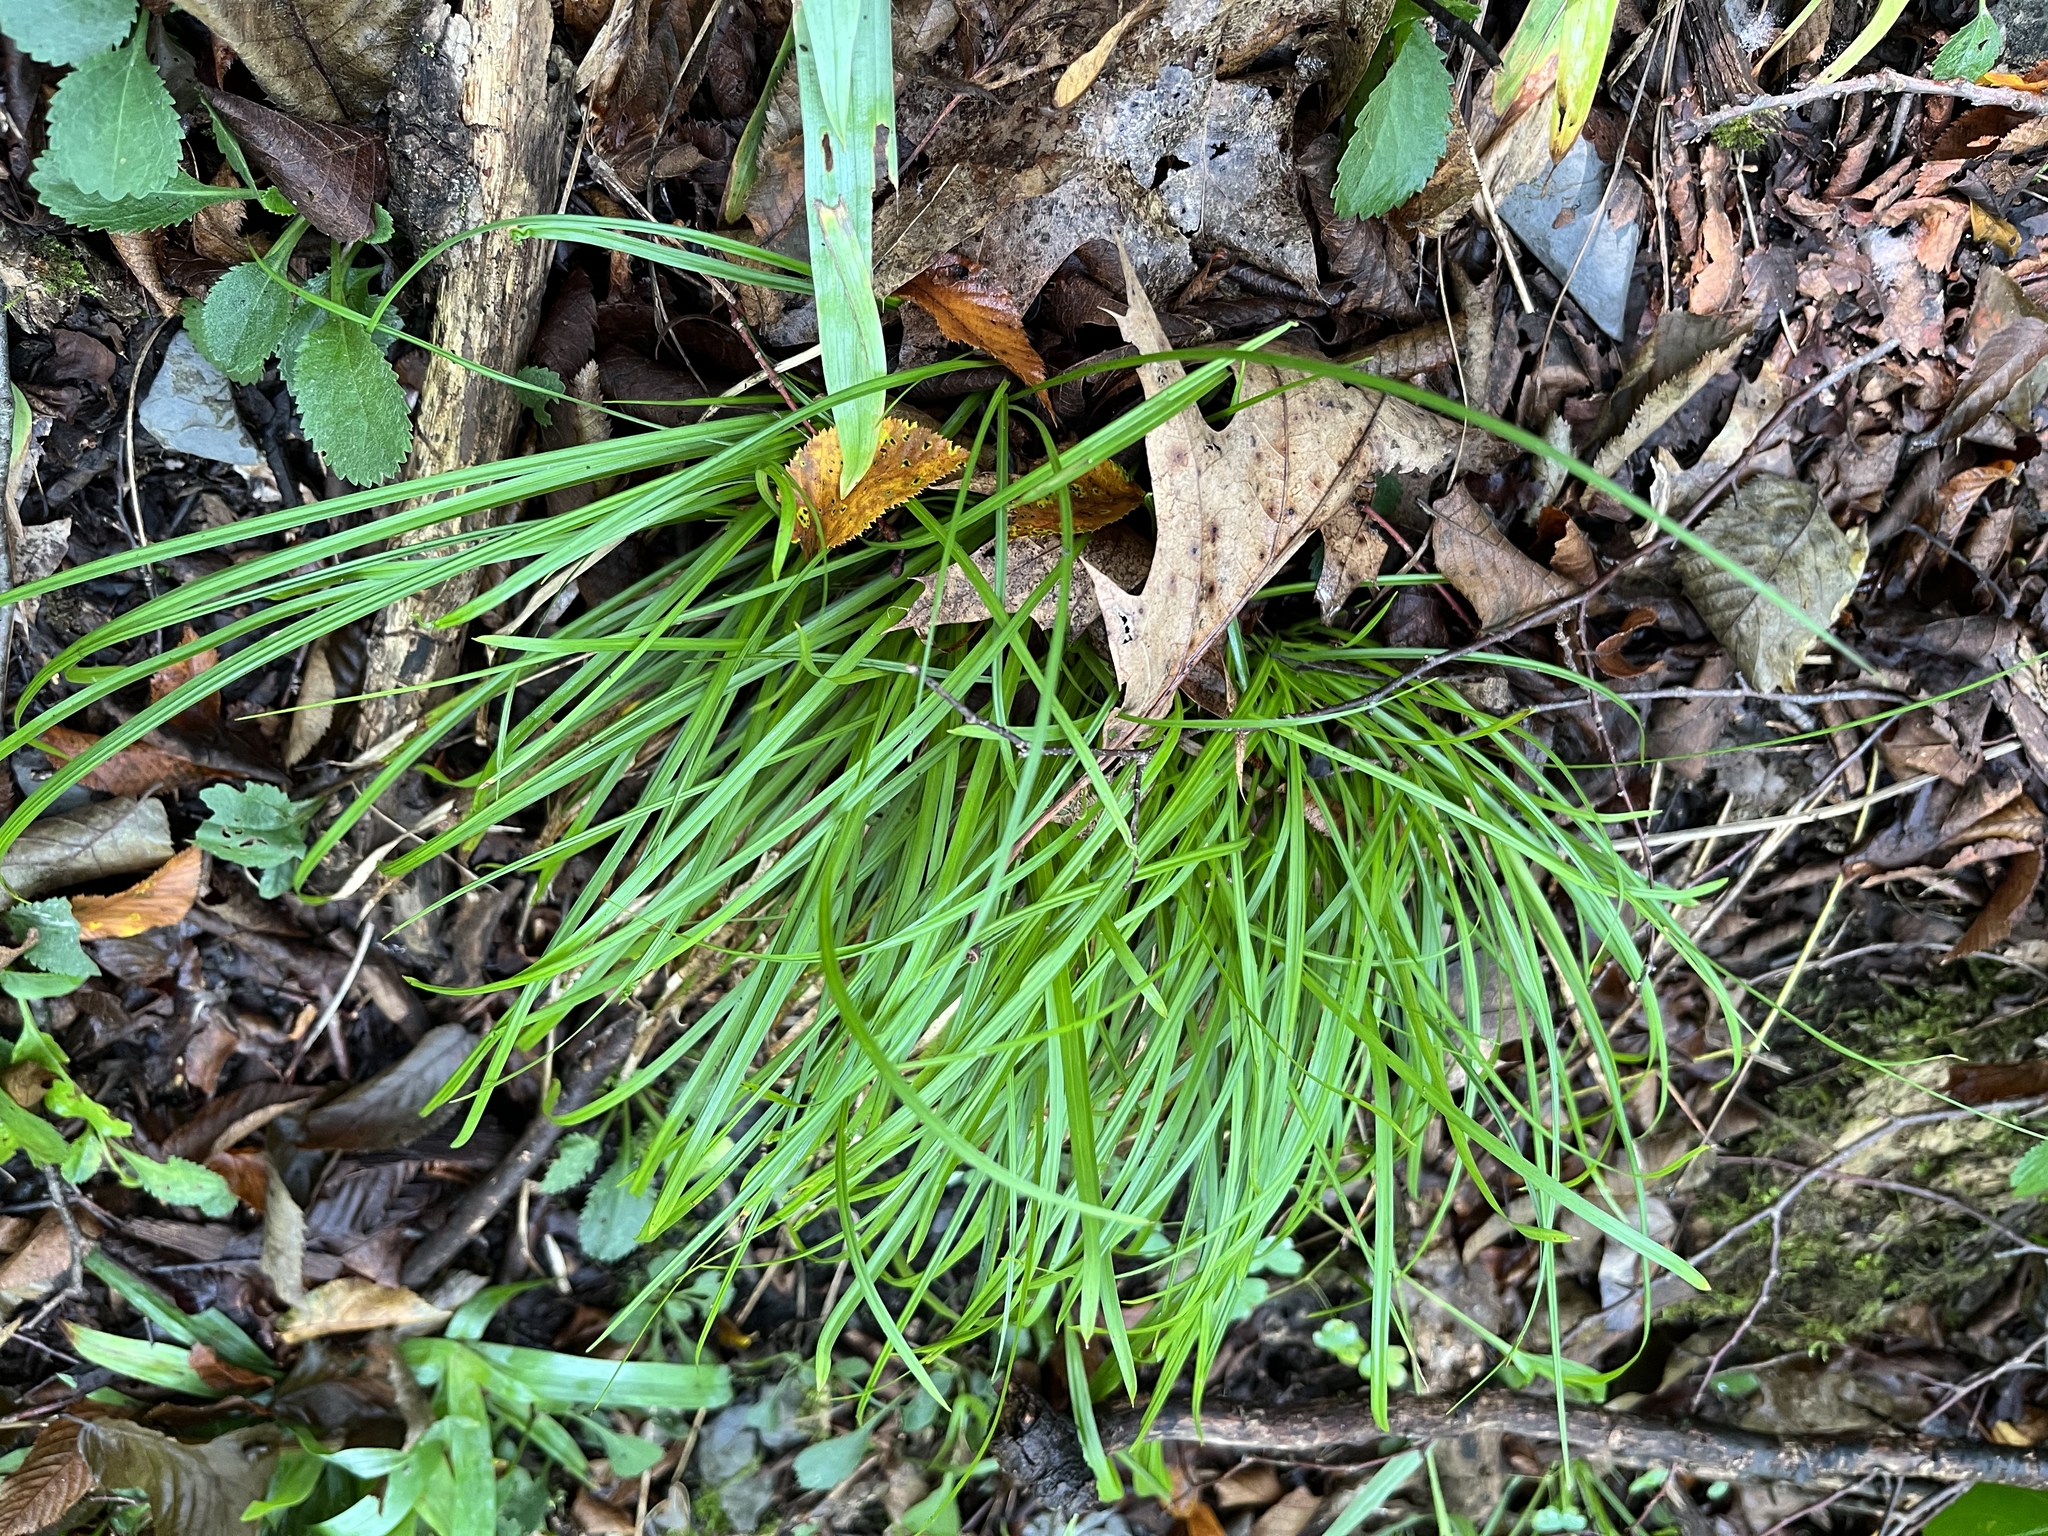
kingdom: Plantae
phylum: Tracheophyta
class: Liliopsida
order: Poales
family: Cyperaceae
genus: Carex
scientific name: Carex
